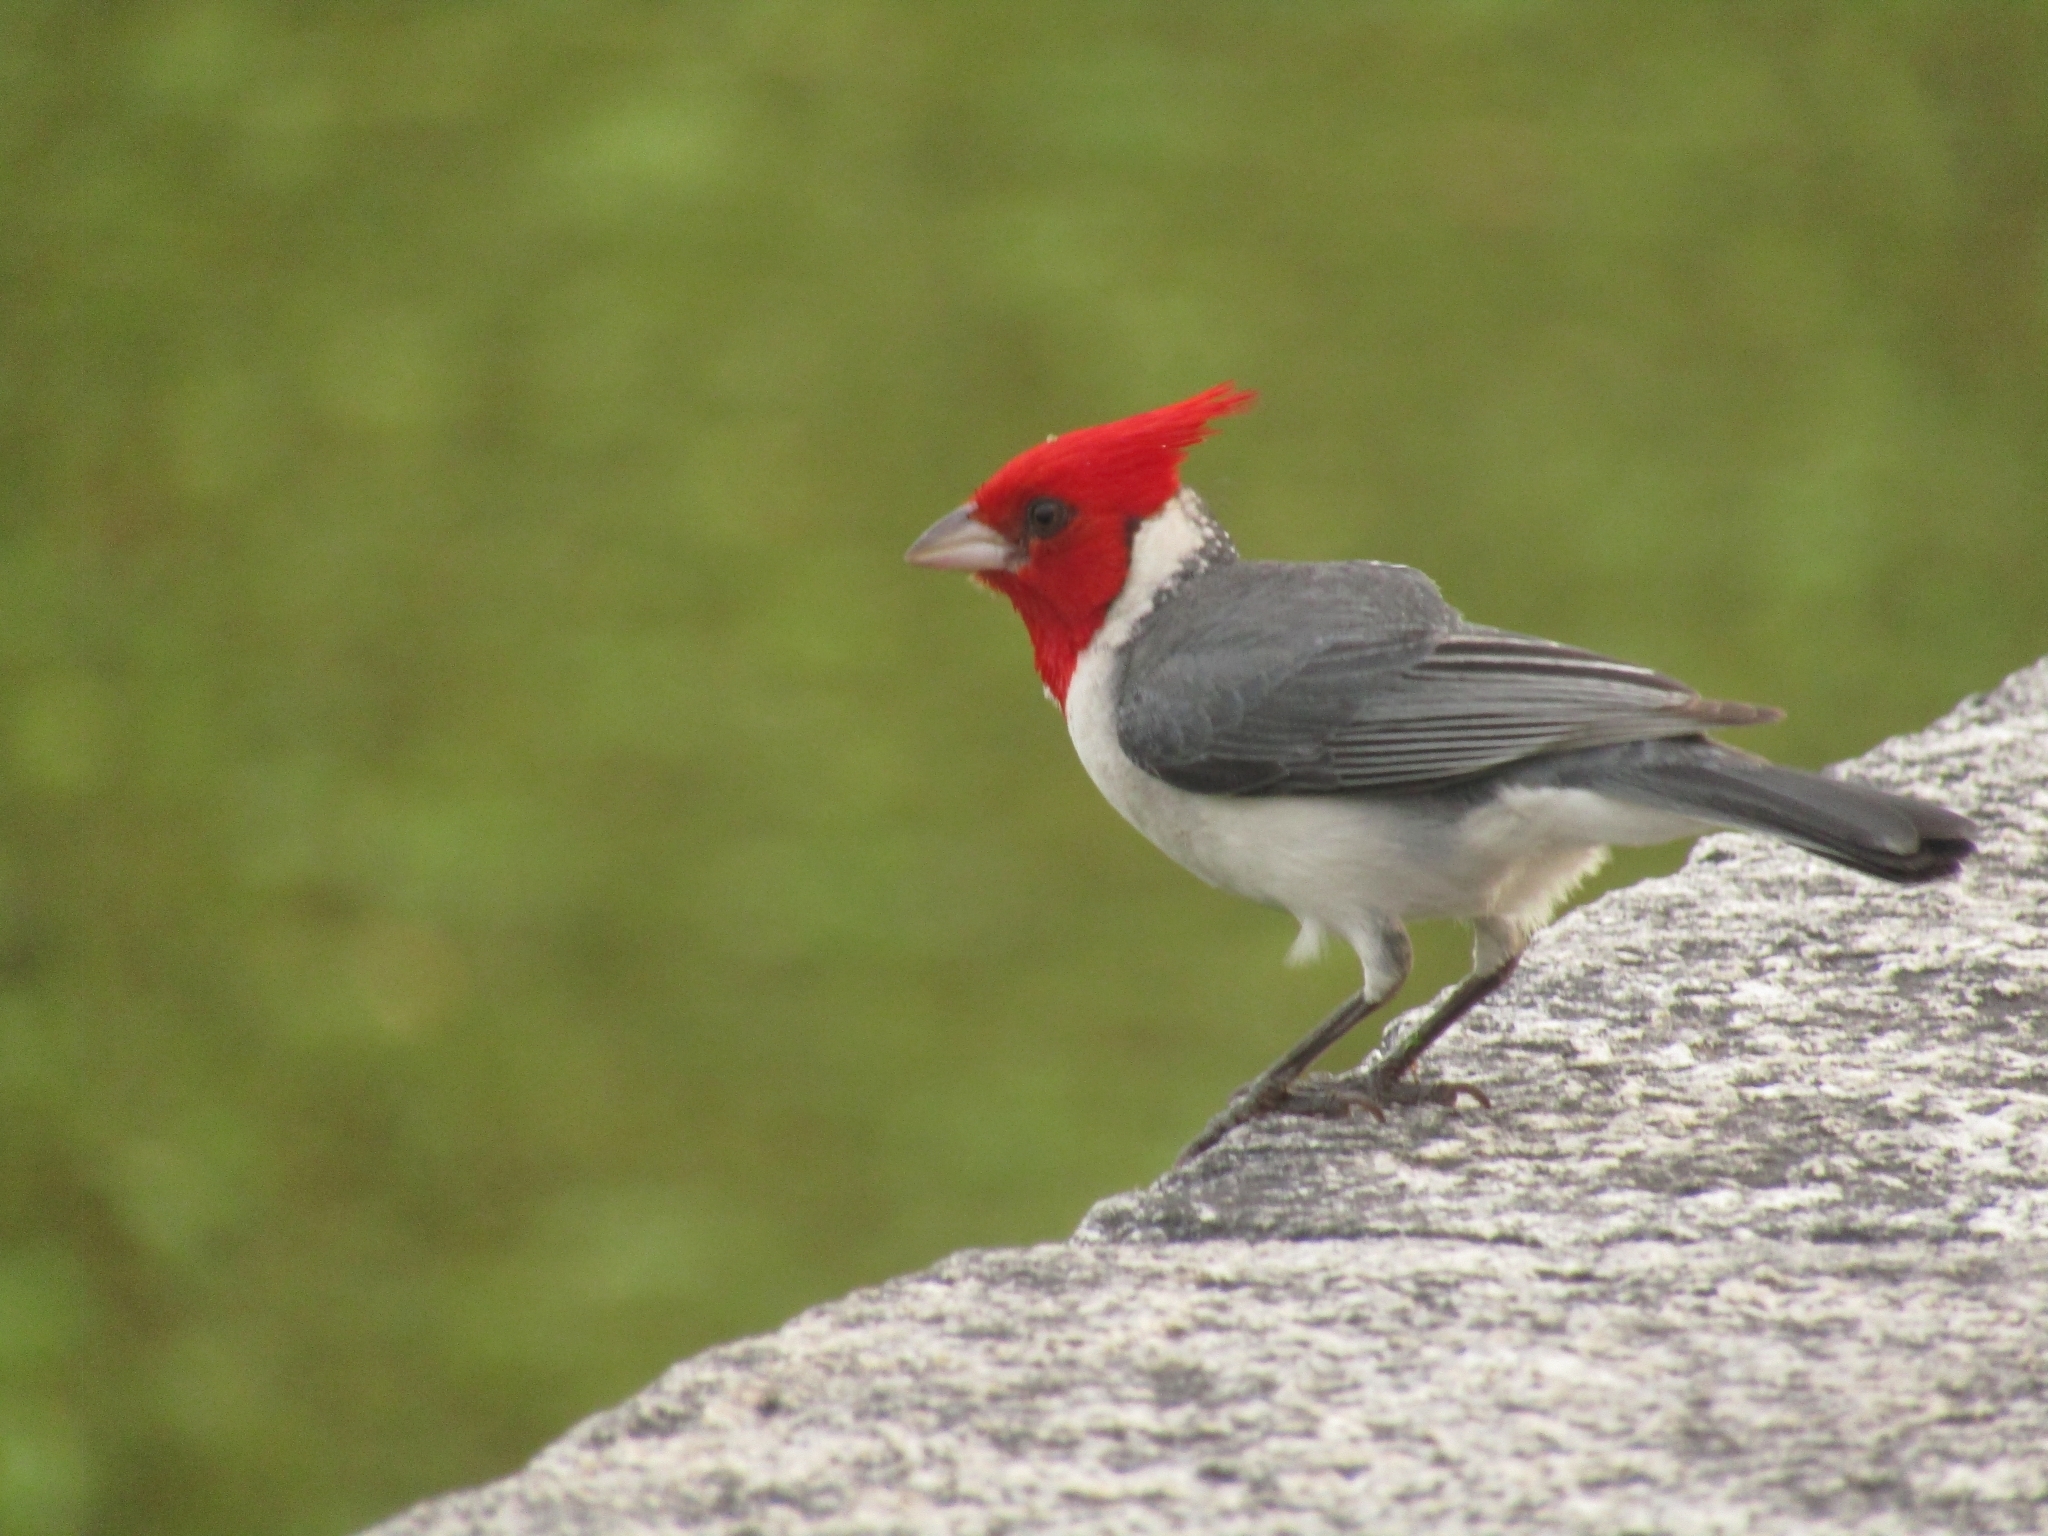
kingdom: Animalia
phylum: Chordata
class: Aves
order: Passeriformes
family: Thraupidae
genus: Paroaria
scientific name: Paroaria coronata
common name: Red-crested cardinal
